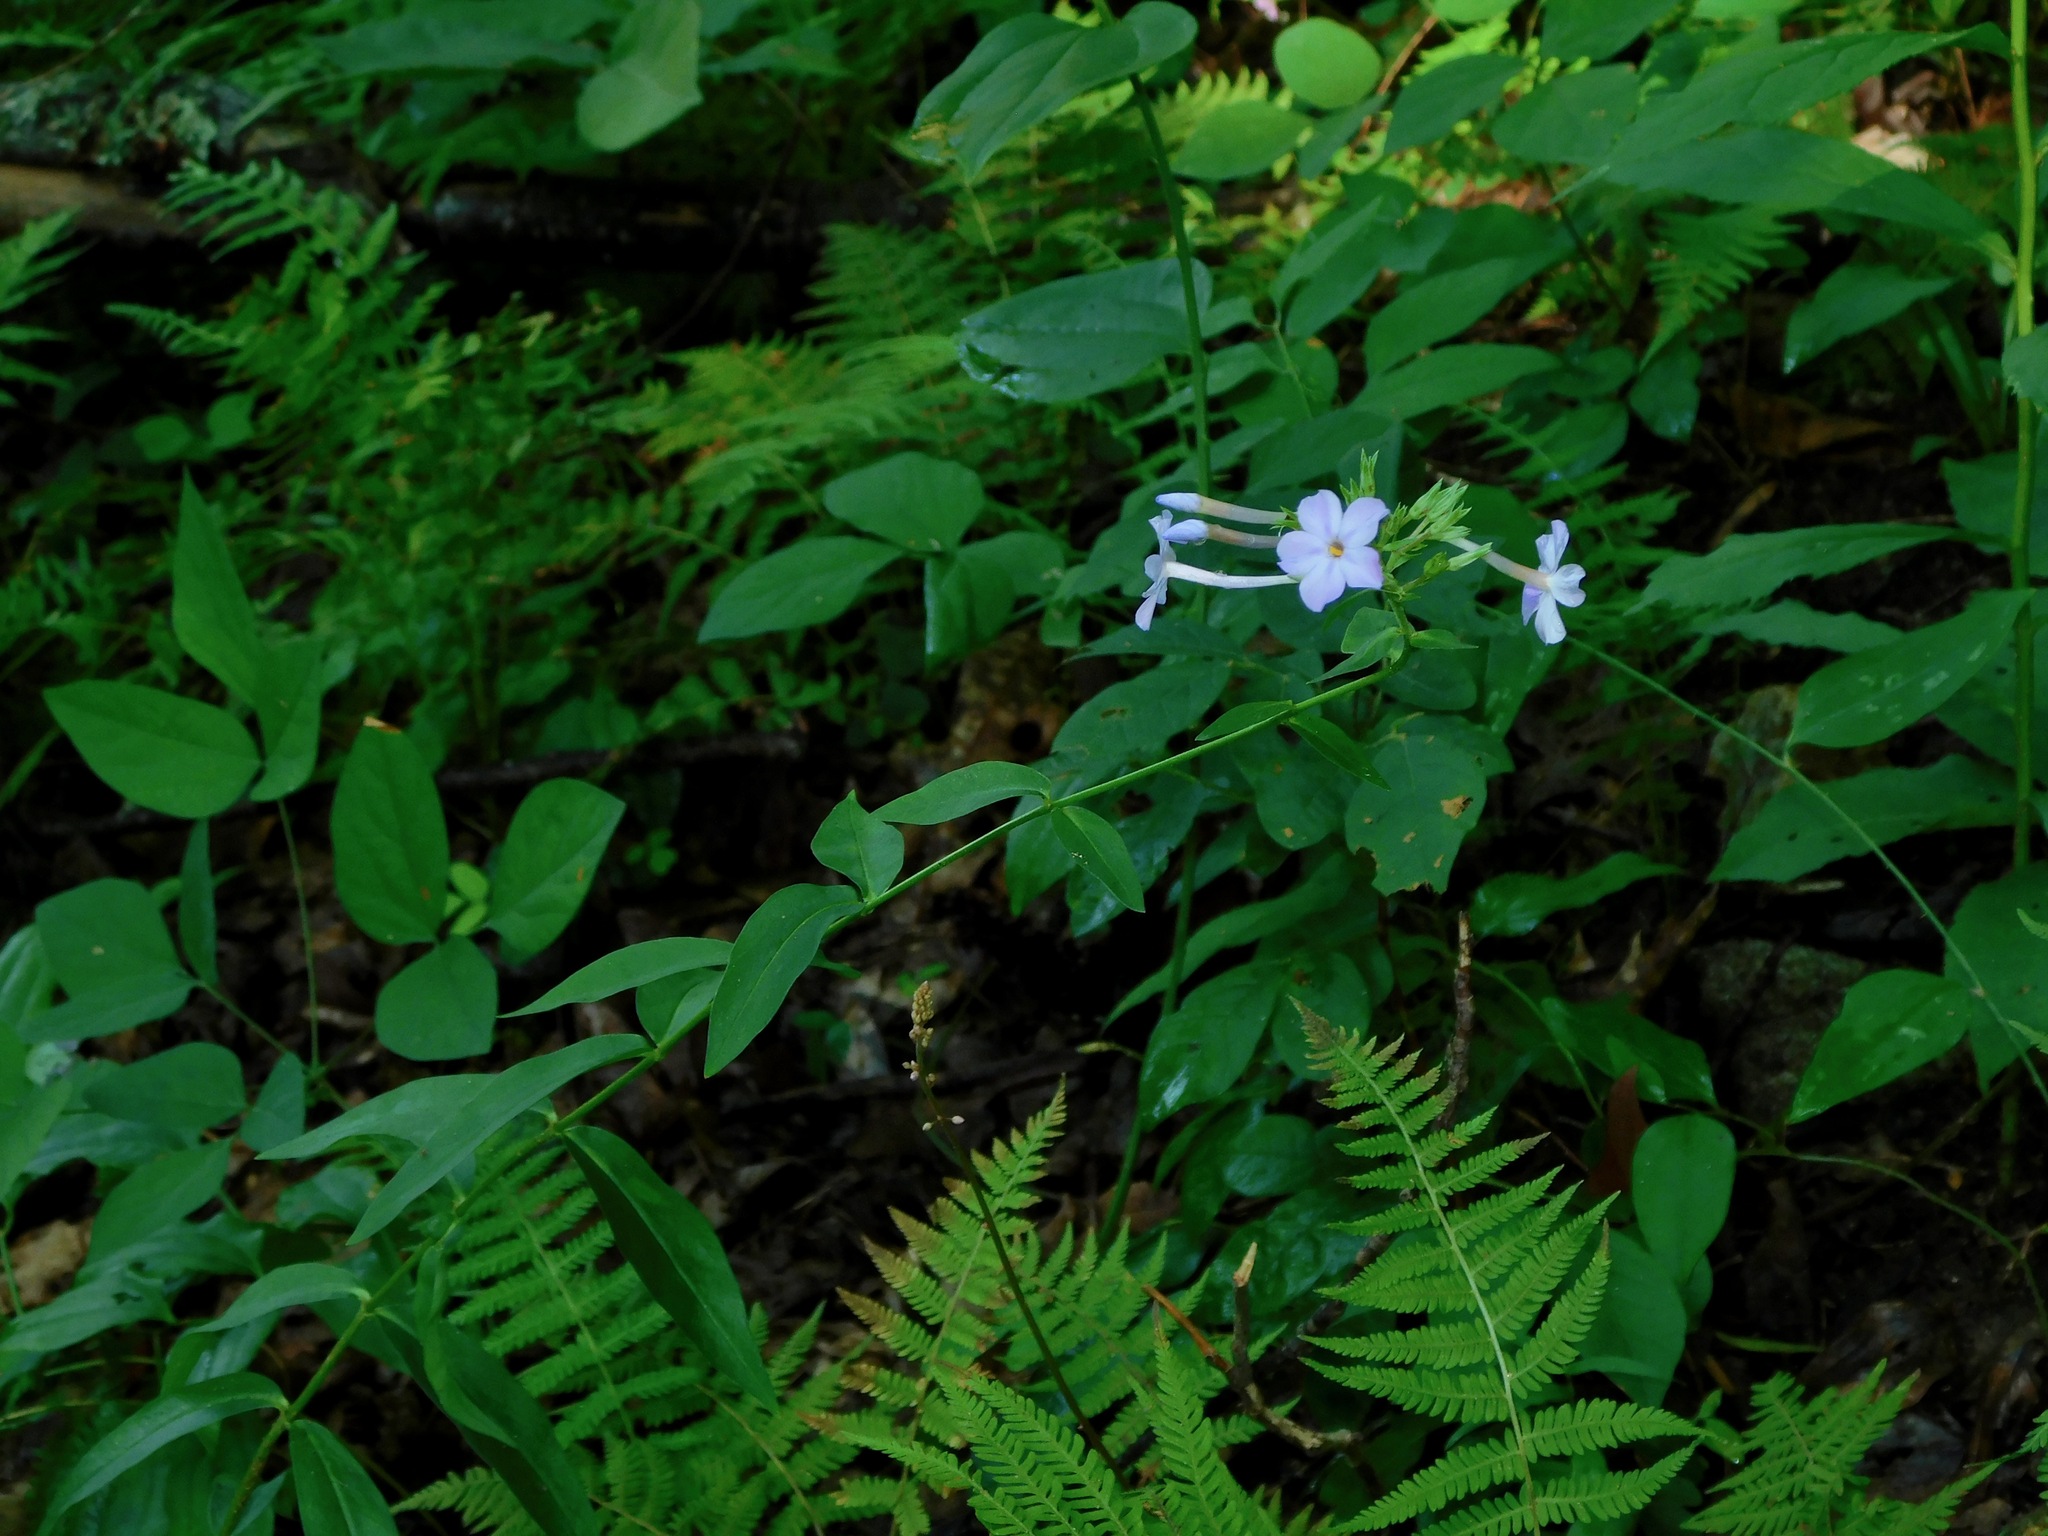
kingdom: Plantae
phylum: Tracheophyta
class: Magnoliopsida
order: Ericales
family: Polemoniaceae
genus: Phlox
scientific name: Phlox carolina
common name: Thick-leaf phlox
